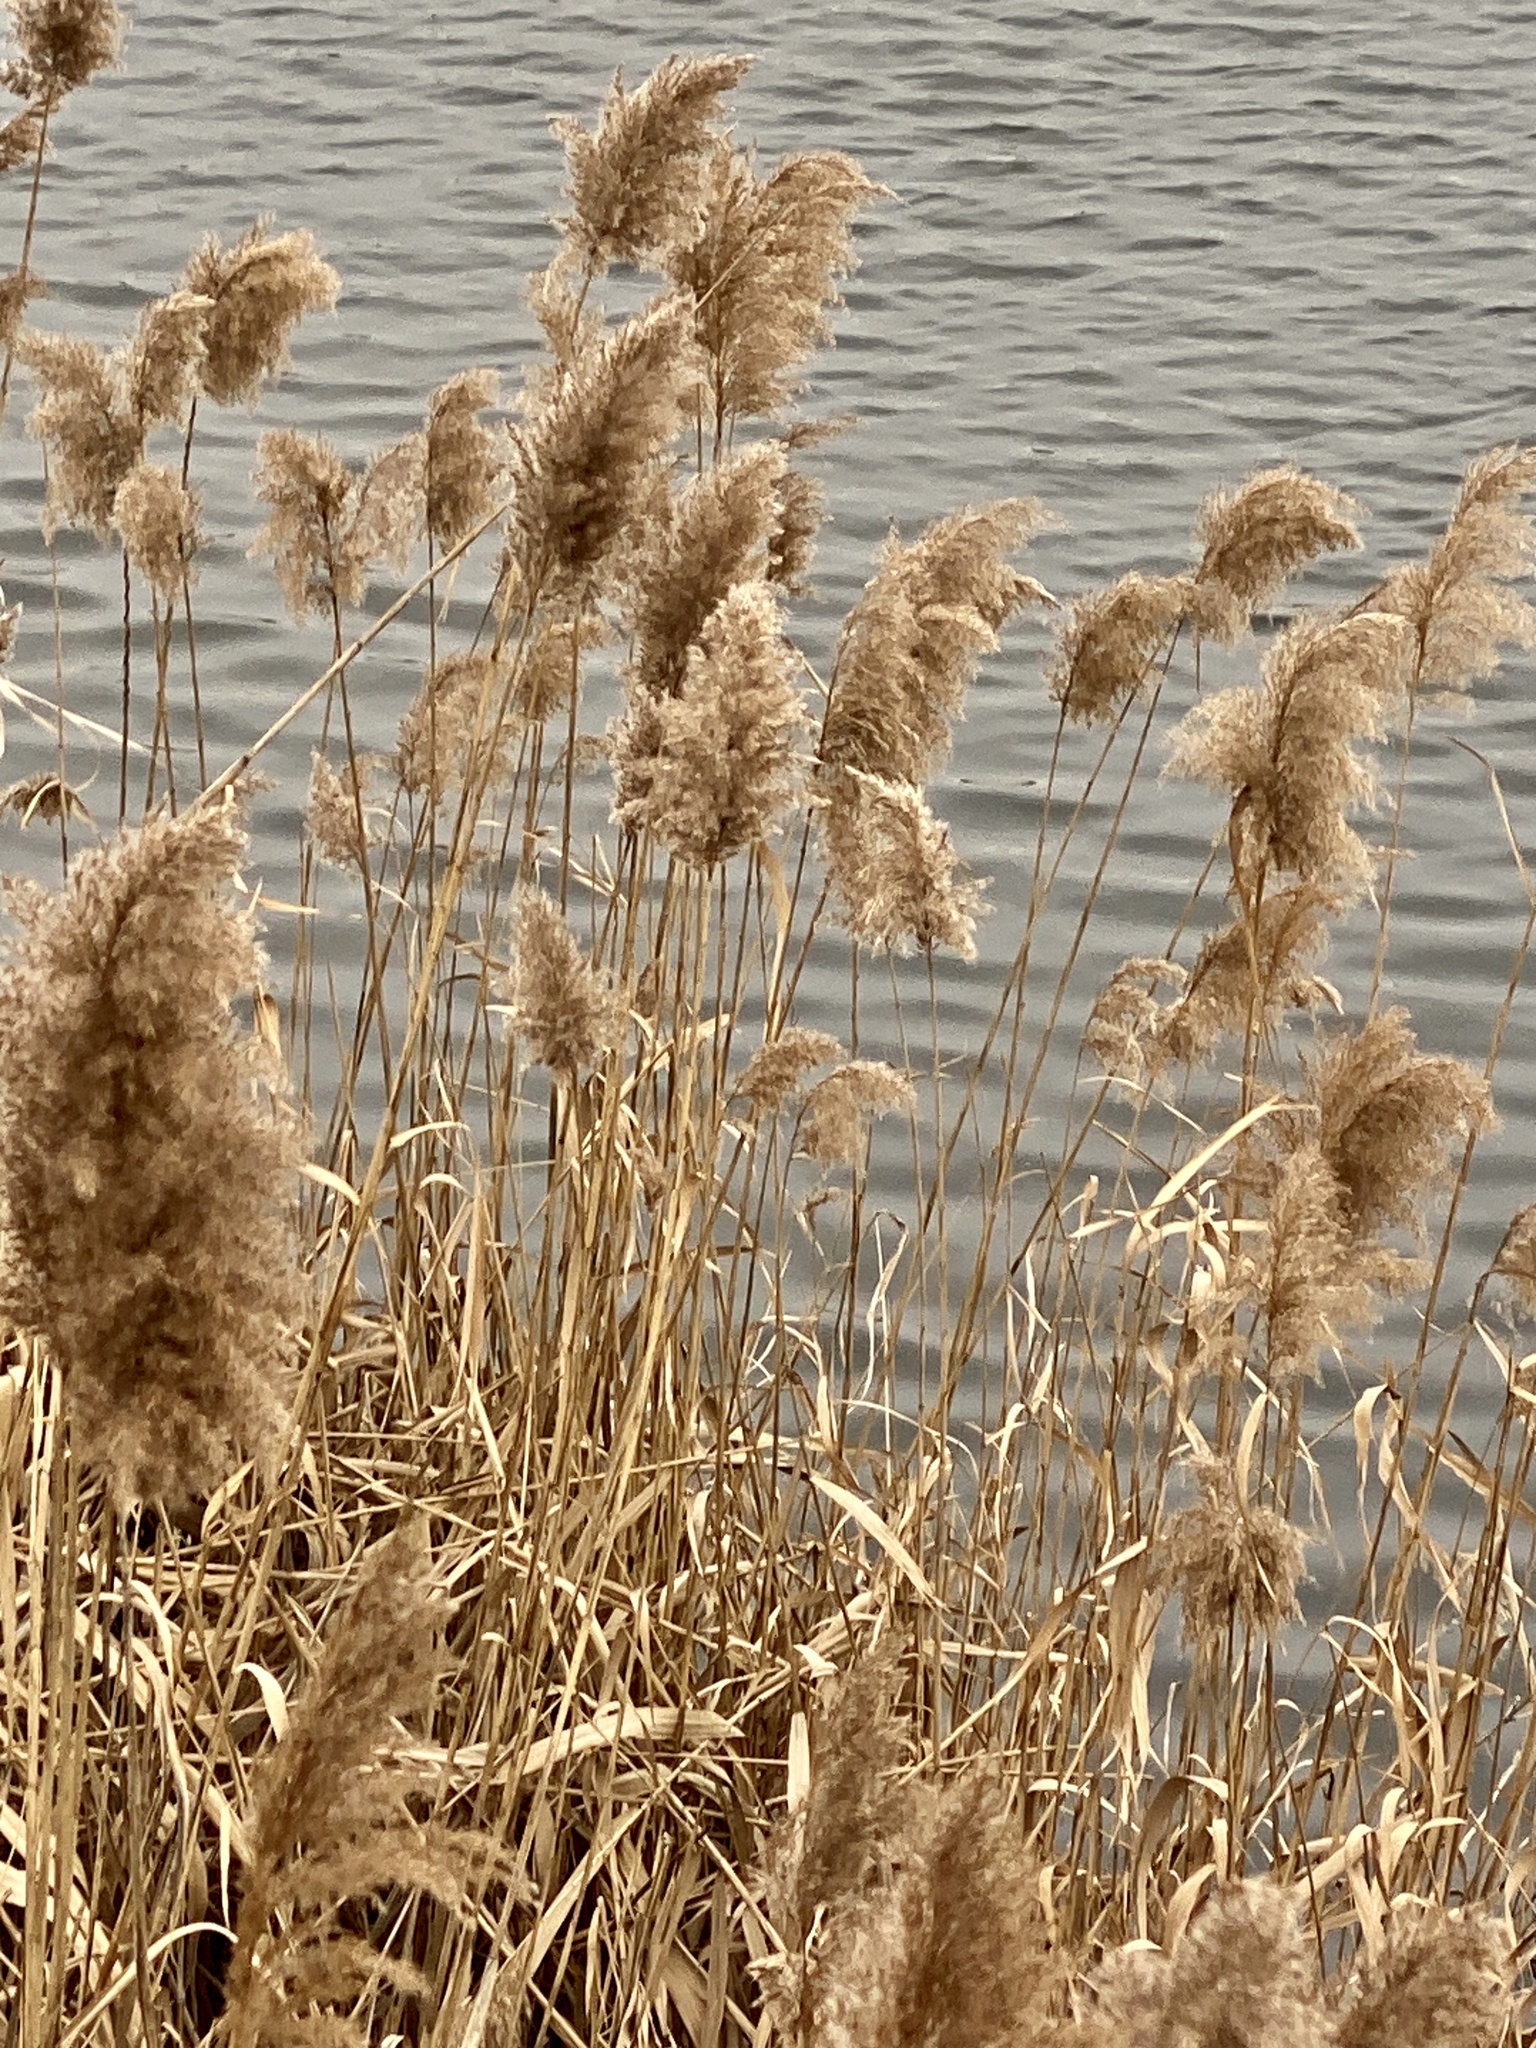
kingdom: Plantae
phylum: Tracheophyta
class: Liliopsida
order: Poales
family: Poaceae
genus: Phragmites
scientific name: Phragmites australis
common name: Common reed
